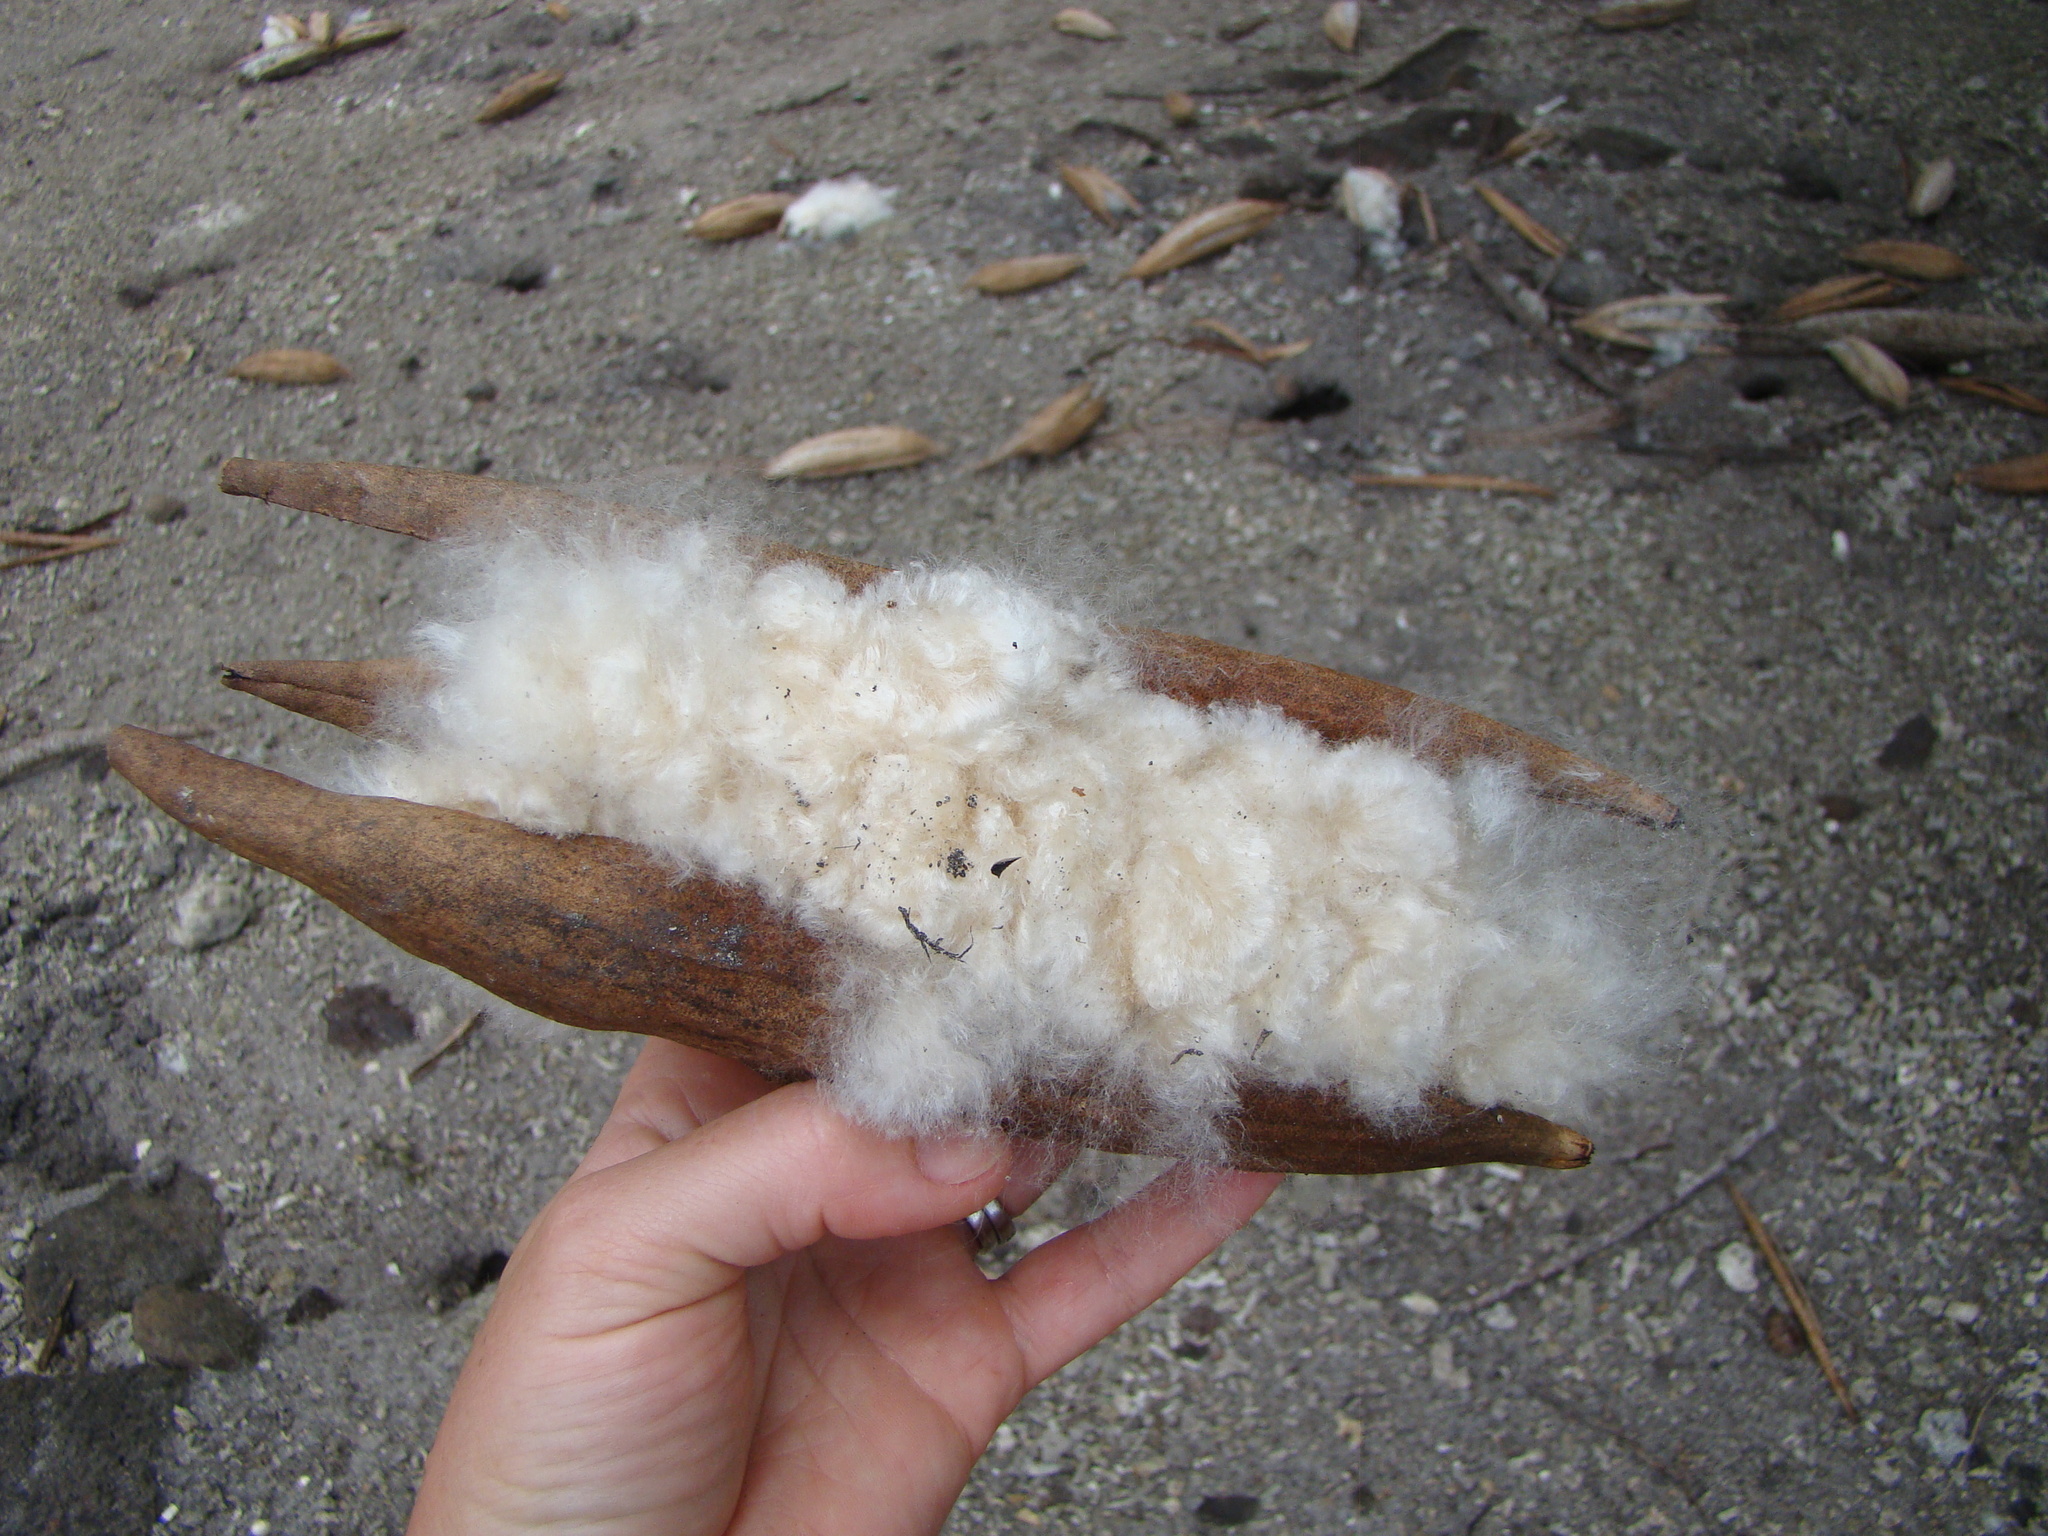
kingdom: Plantae
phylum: Tracheophyta
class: Magnoliopsida
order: Malvales
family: Malvaceae
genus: Ceiba
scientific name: Ceiba pentandra
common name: Kapok
